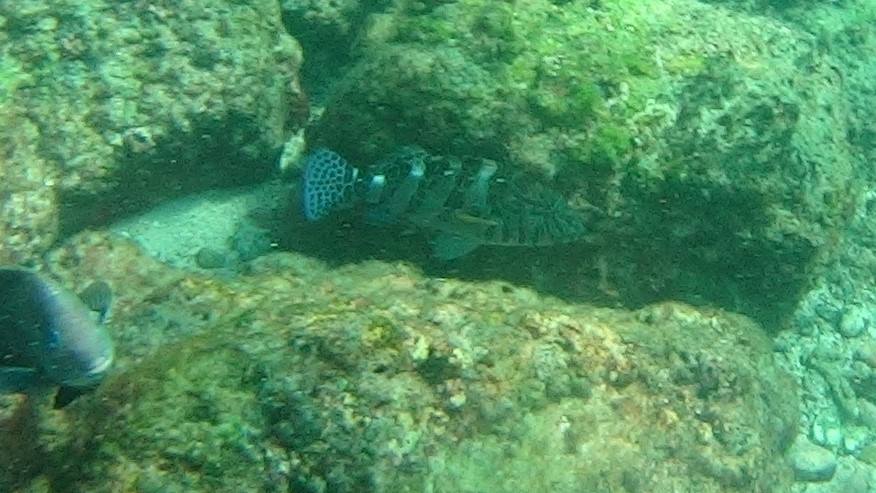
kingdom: Animalia
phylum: Chordata
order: Perciformes
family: Cirrhitidae
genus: Cirrhitus
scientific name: Cirrhitus rivulatus
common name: Giant hawkfish
